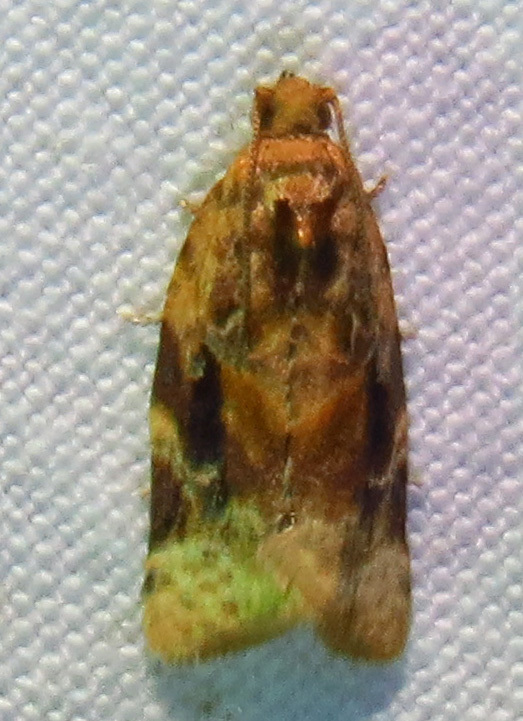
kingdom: Animalia
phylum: Arthropoda
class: Insecta
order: Lepidoptera
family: Tortricidae
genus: Argyrotaenia
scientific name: Argyrotaenia velutinana
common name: Red-banded leafroller moth
